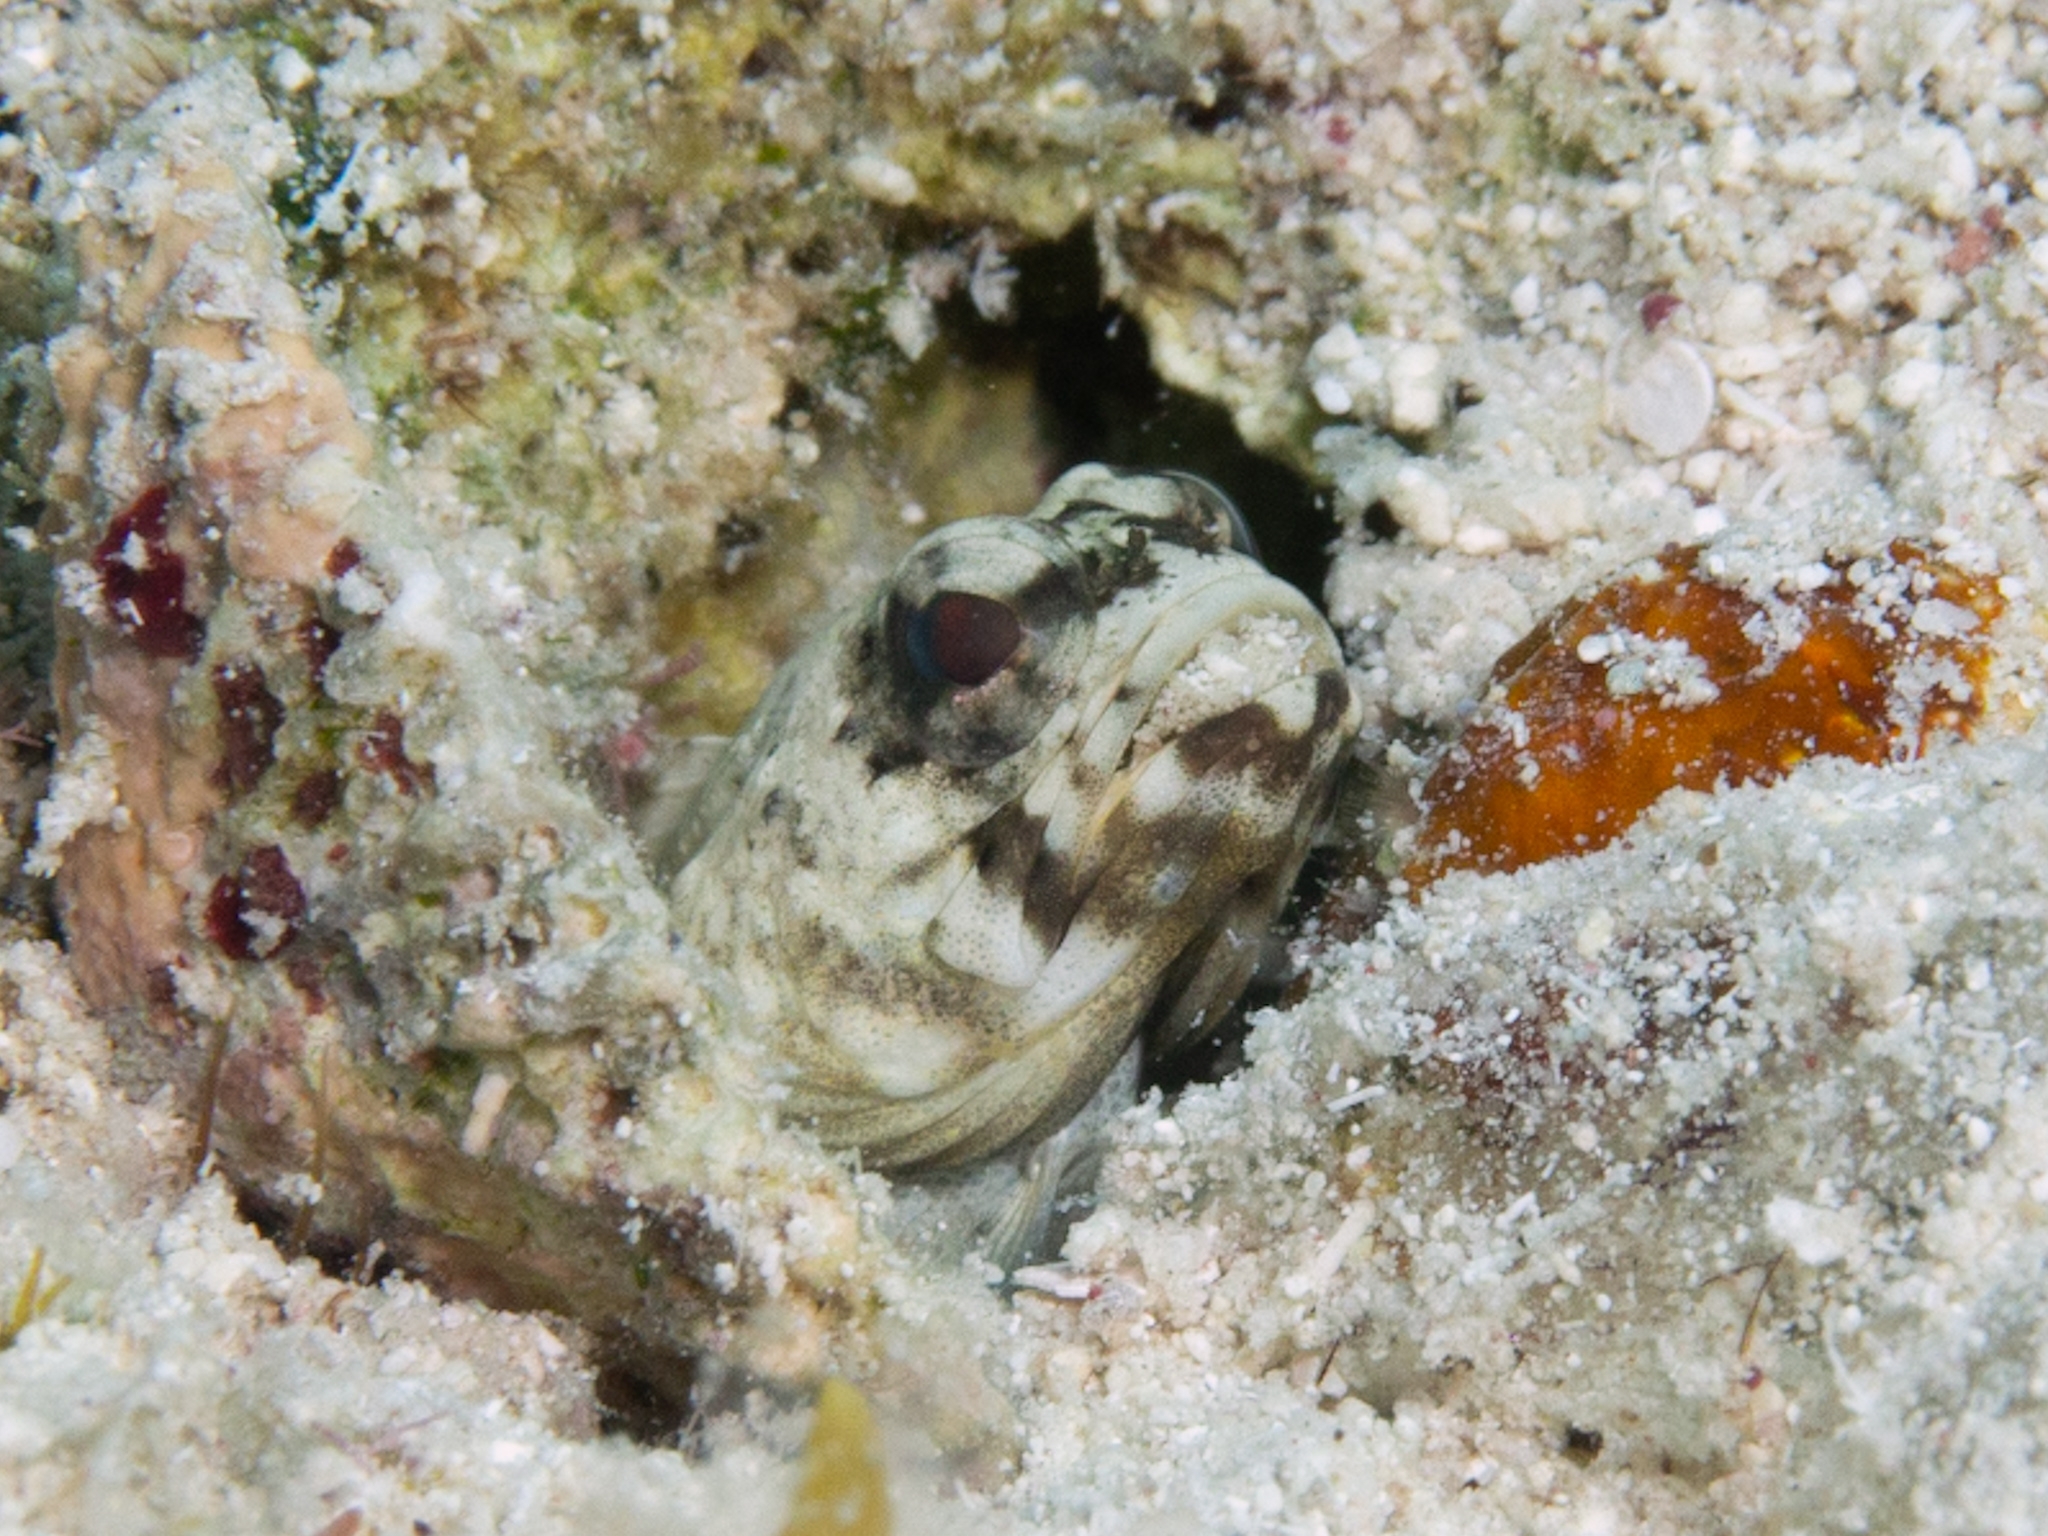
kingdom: Animalia
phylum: Chordata
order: Perciformes
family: Opistognathidae
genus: Opistognathus
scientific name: Opistognathus maxillosus
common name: Mottled jawfish
